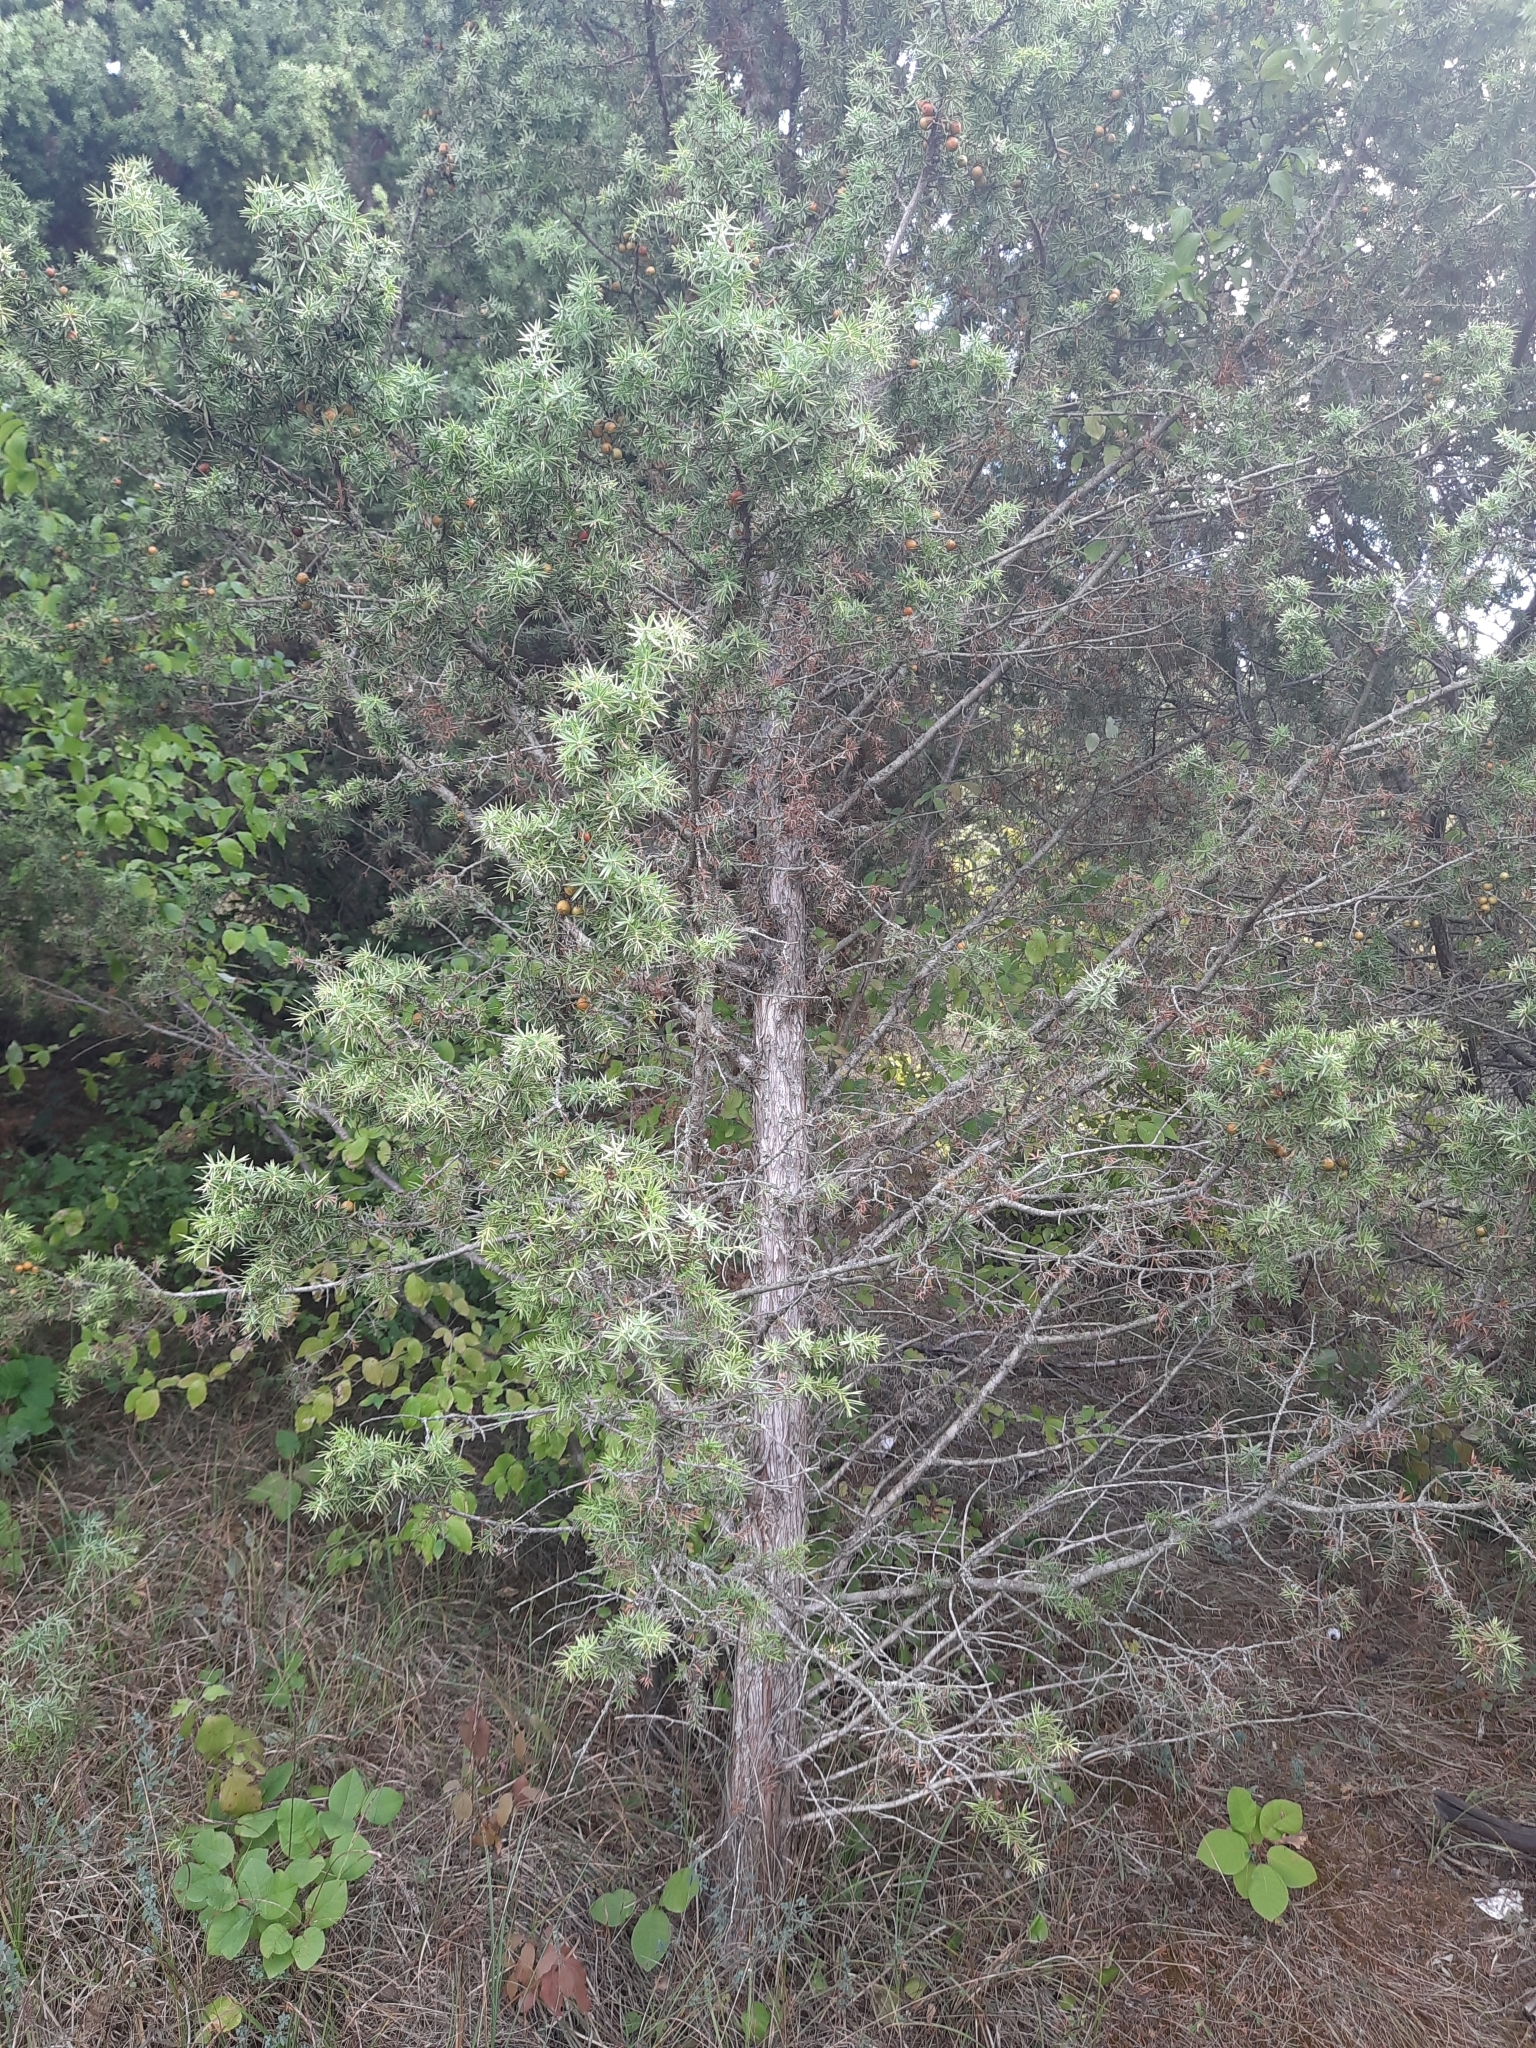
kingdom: Plantae
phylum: Tracheophyta
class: Pinopsida
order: Pinales
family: Cupressaceae
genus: Juniperus
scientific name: Juniperus oxycedrus
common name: Prickly juniper
